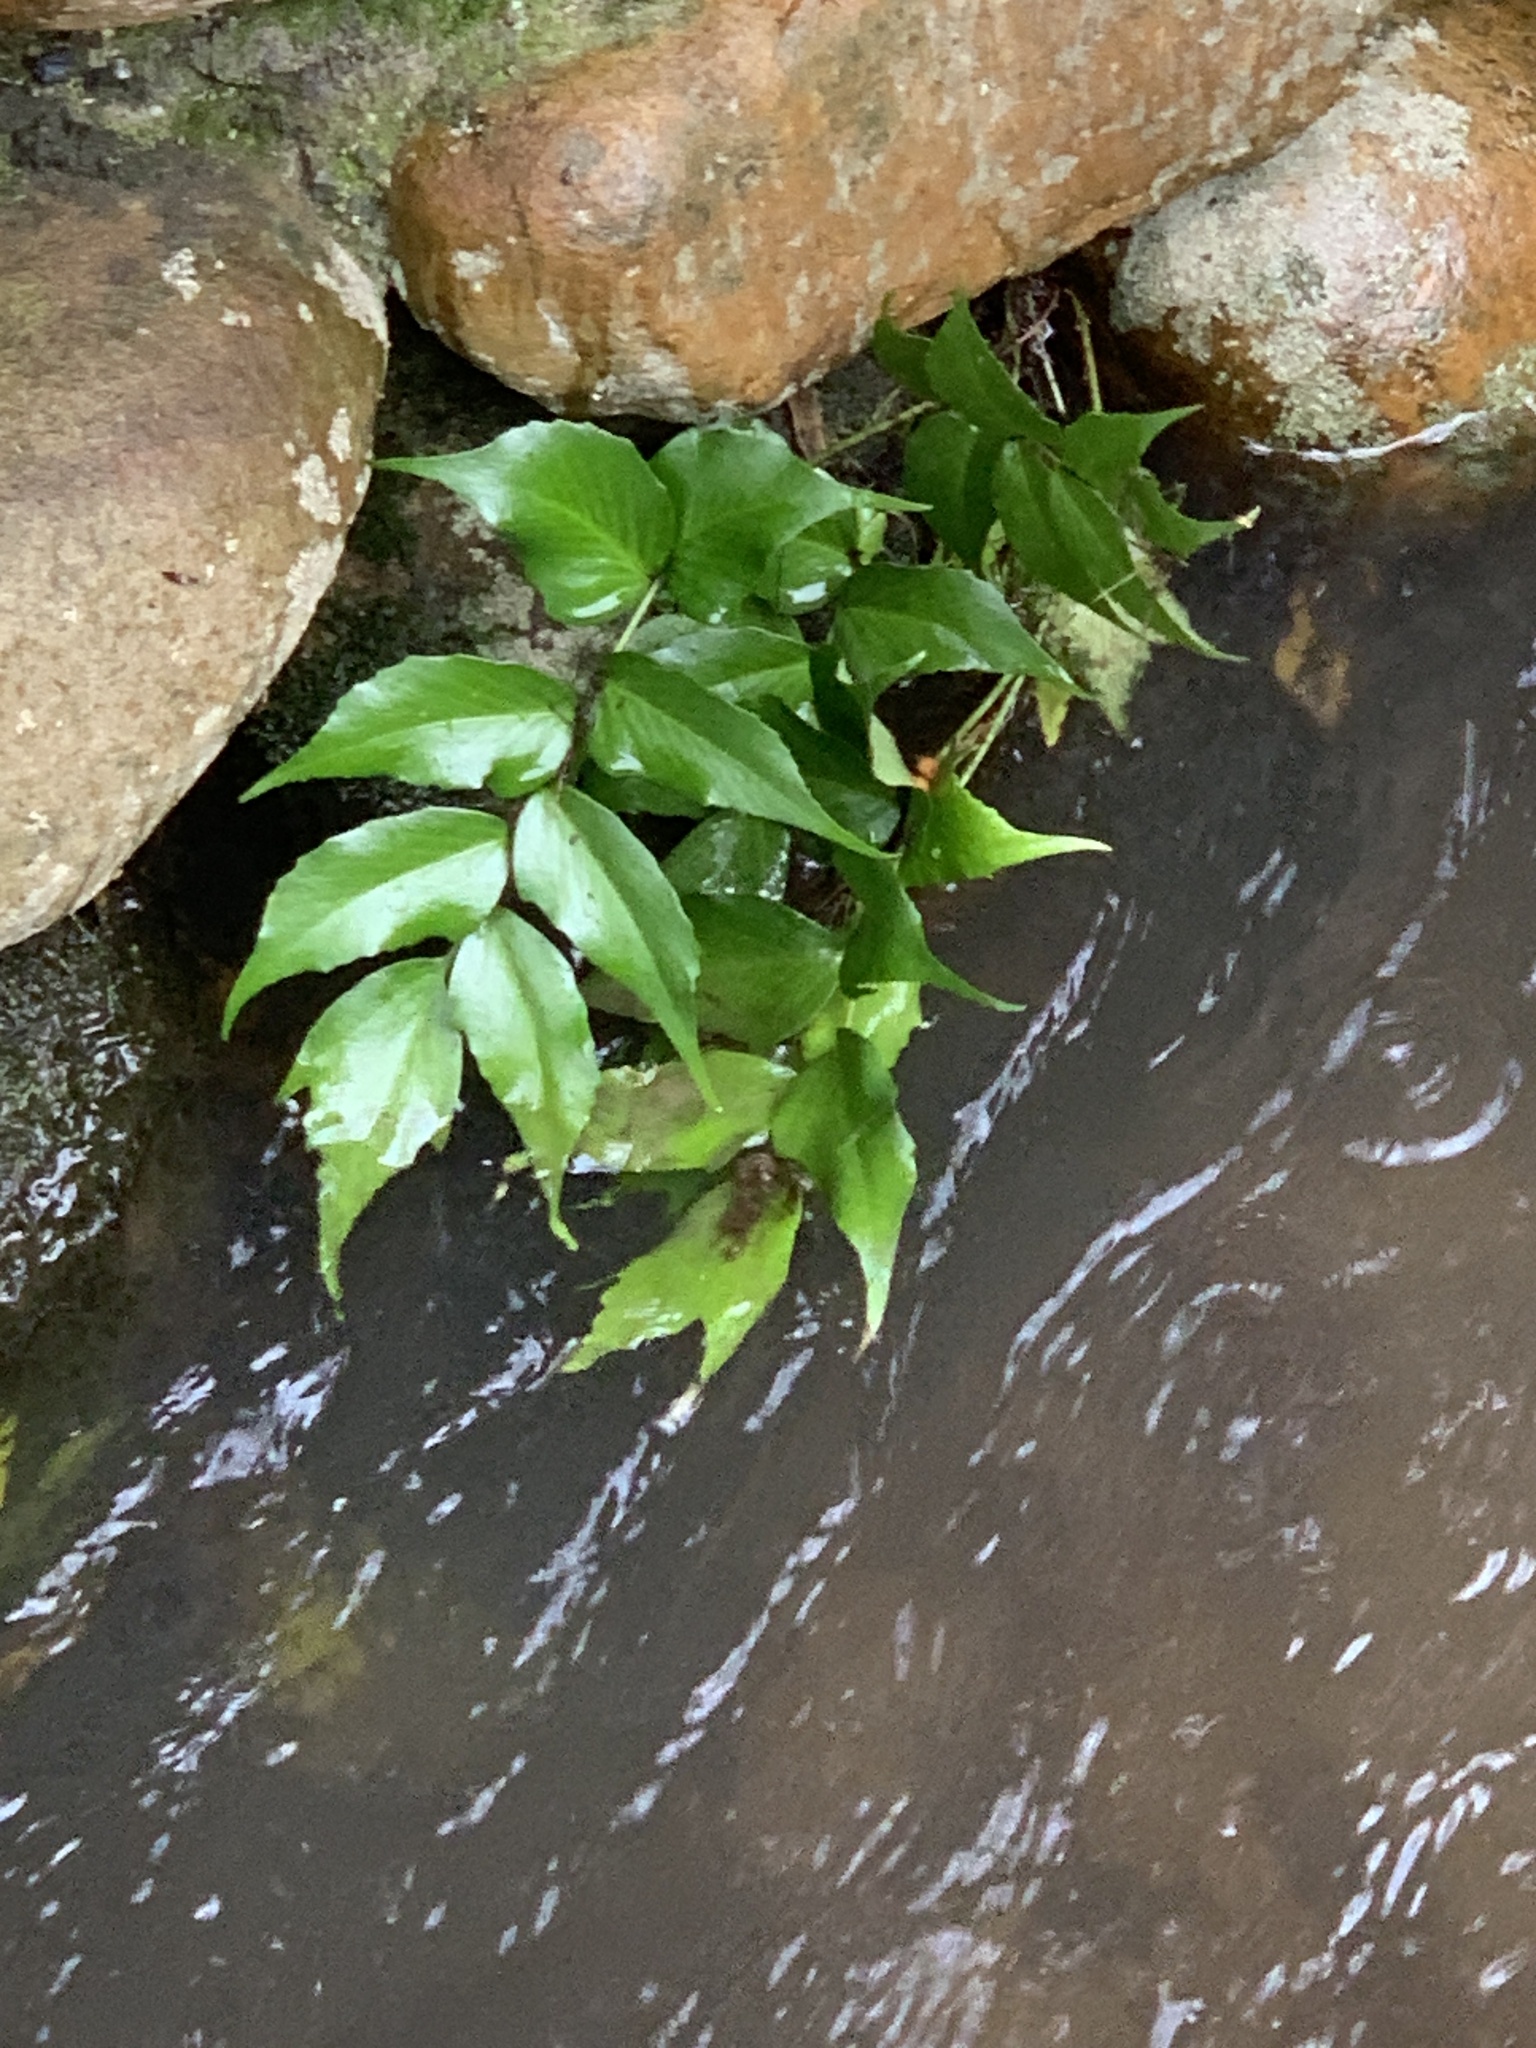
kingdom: Plantae
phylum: Tracheophyta
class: Polypodiopsida
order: Polypodiales
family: Dryopteridaceae
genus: Cyrtomium
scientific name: Cyrtomium falcatum
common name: House holly-fern
